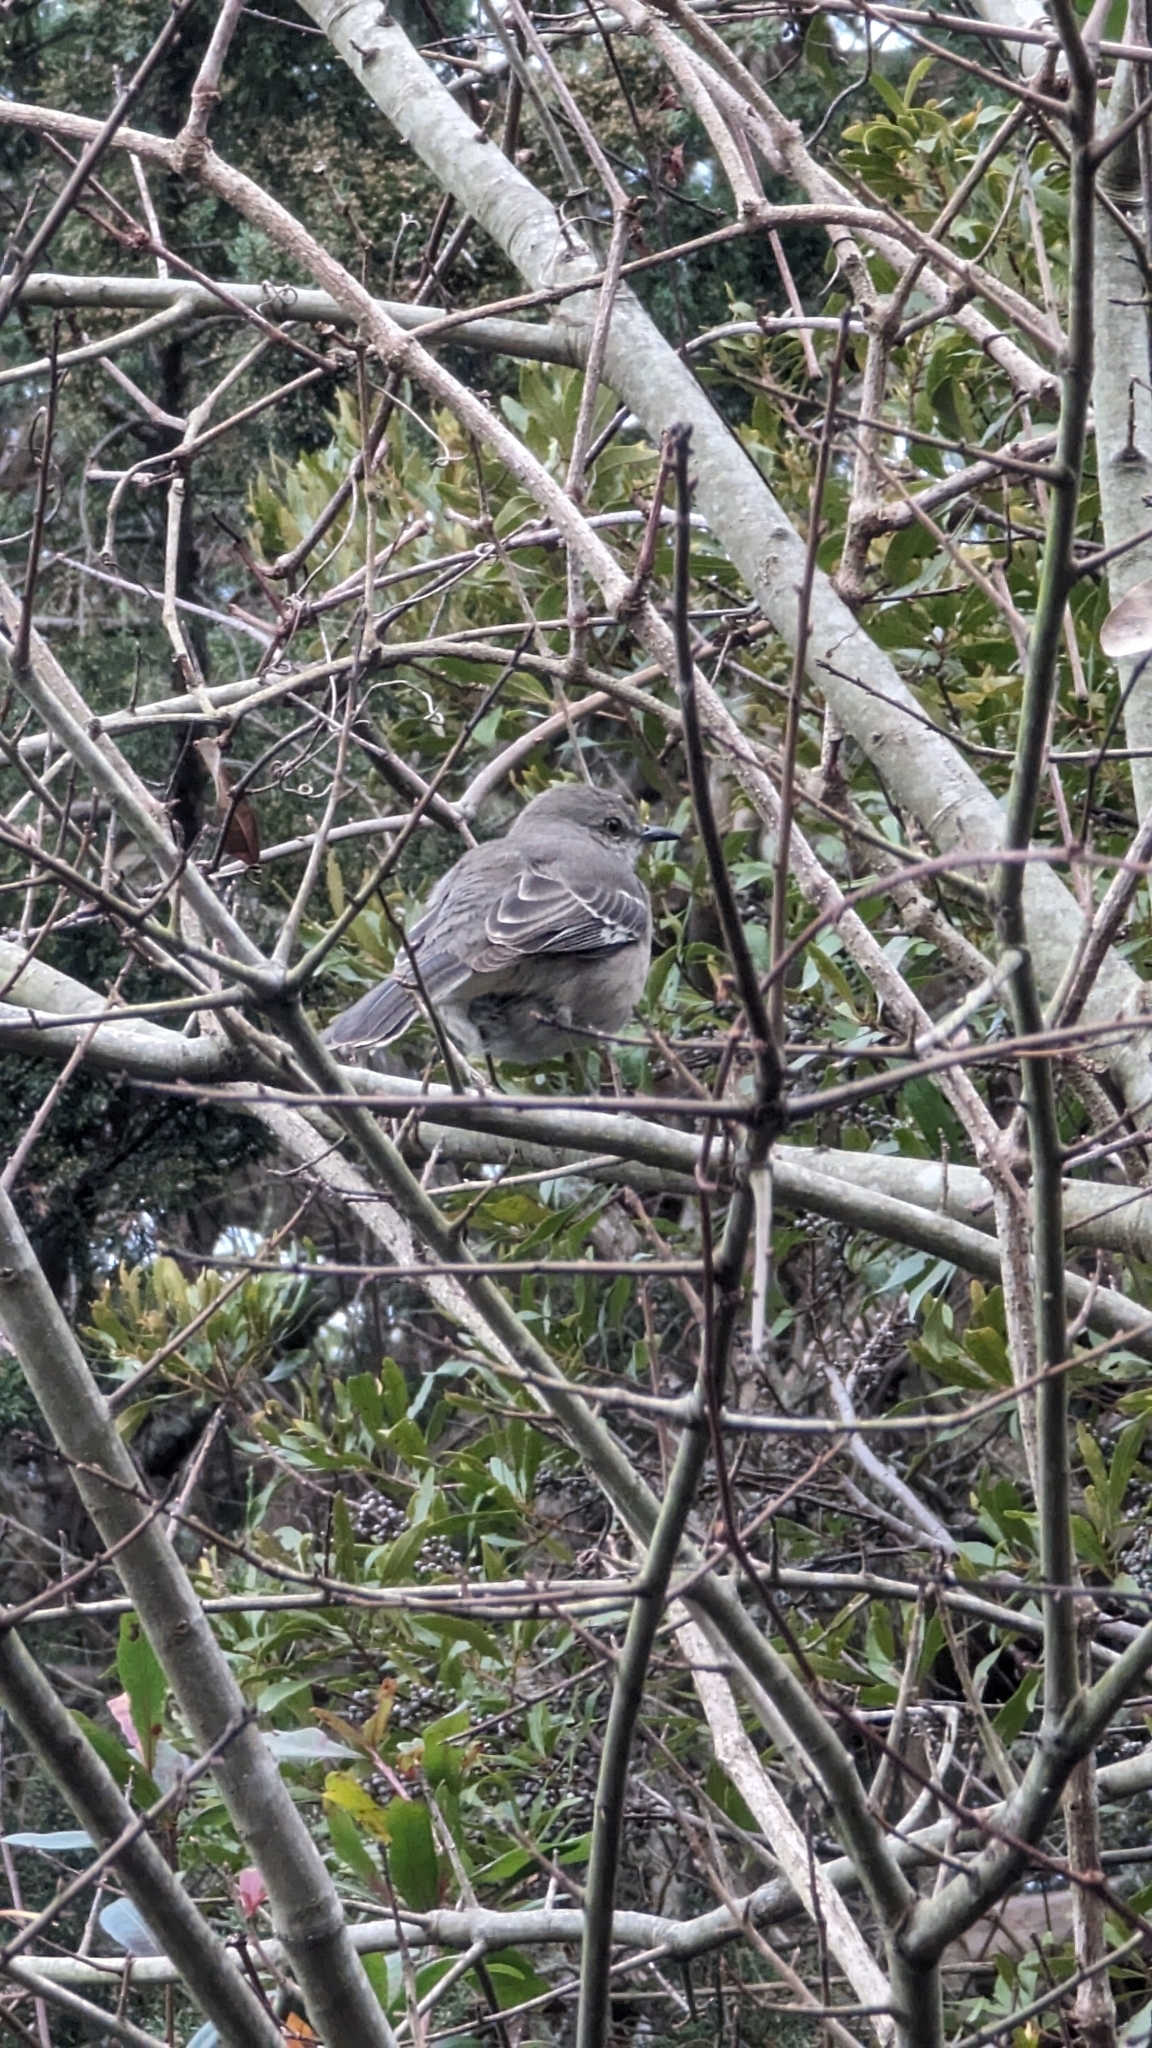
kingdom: Animalia
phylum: Chordata
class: Aves
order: Passeriformes
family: Mimidae
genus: Mimus
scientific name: Mimus polyglottos
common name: Northern mockingbird
